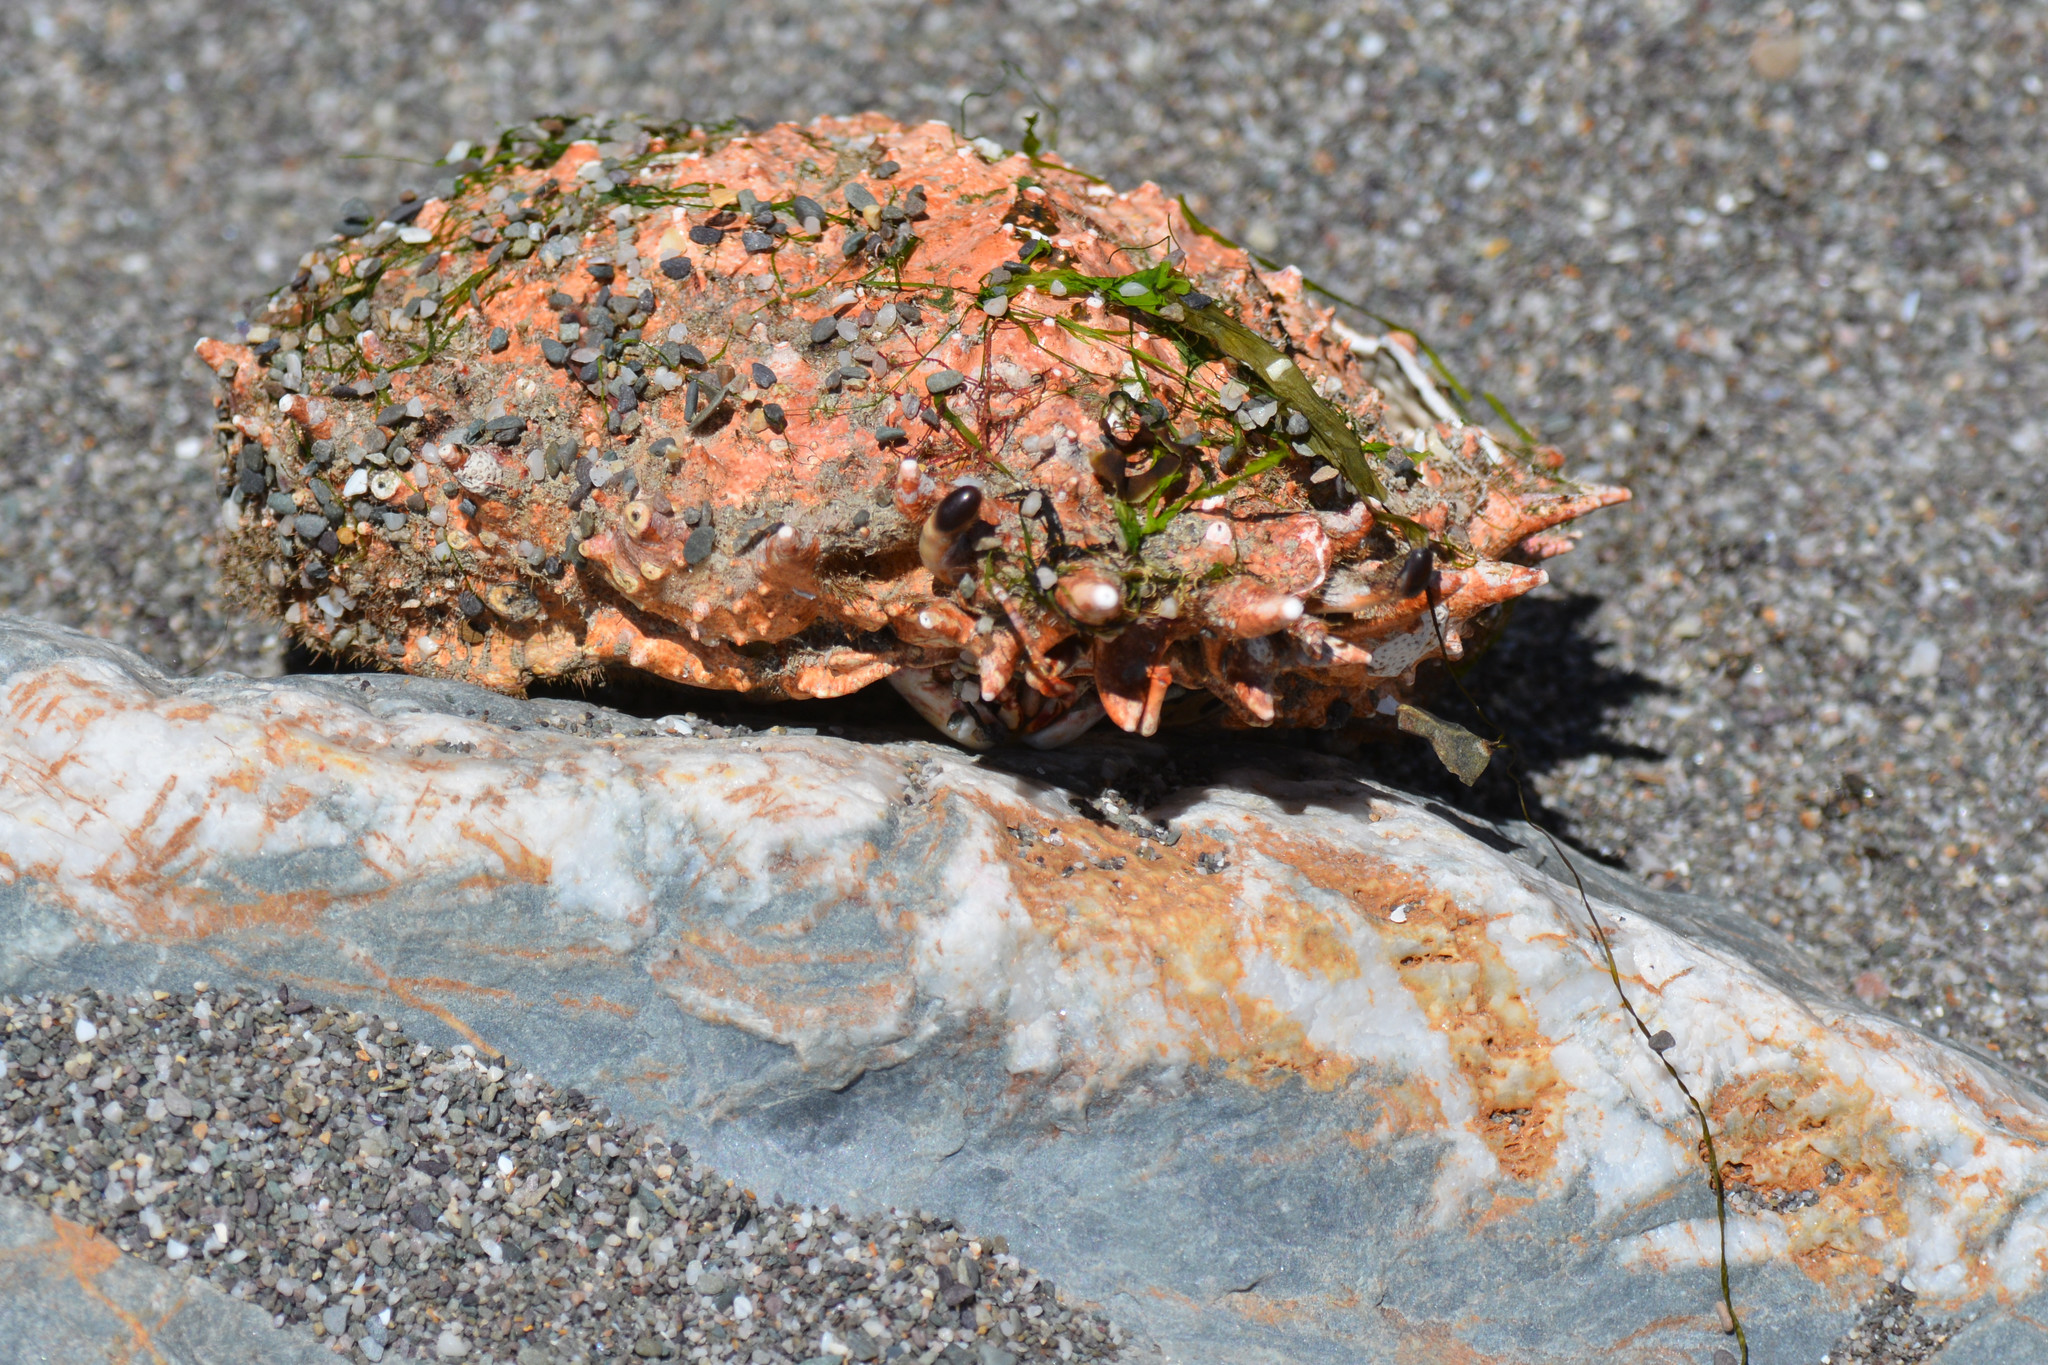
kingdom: Animalia
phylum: Arthropoda
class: Malacostraca
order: Decapoda
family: Majidae
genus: Maja
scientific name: Maja brachydactyla
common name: Common spider crab
